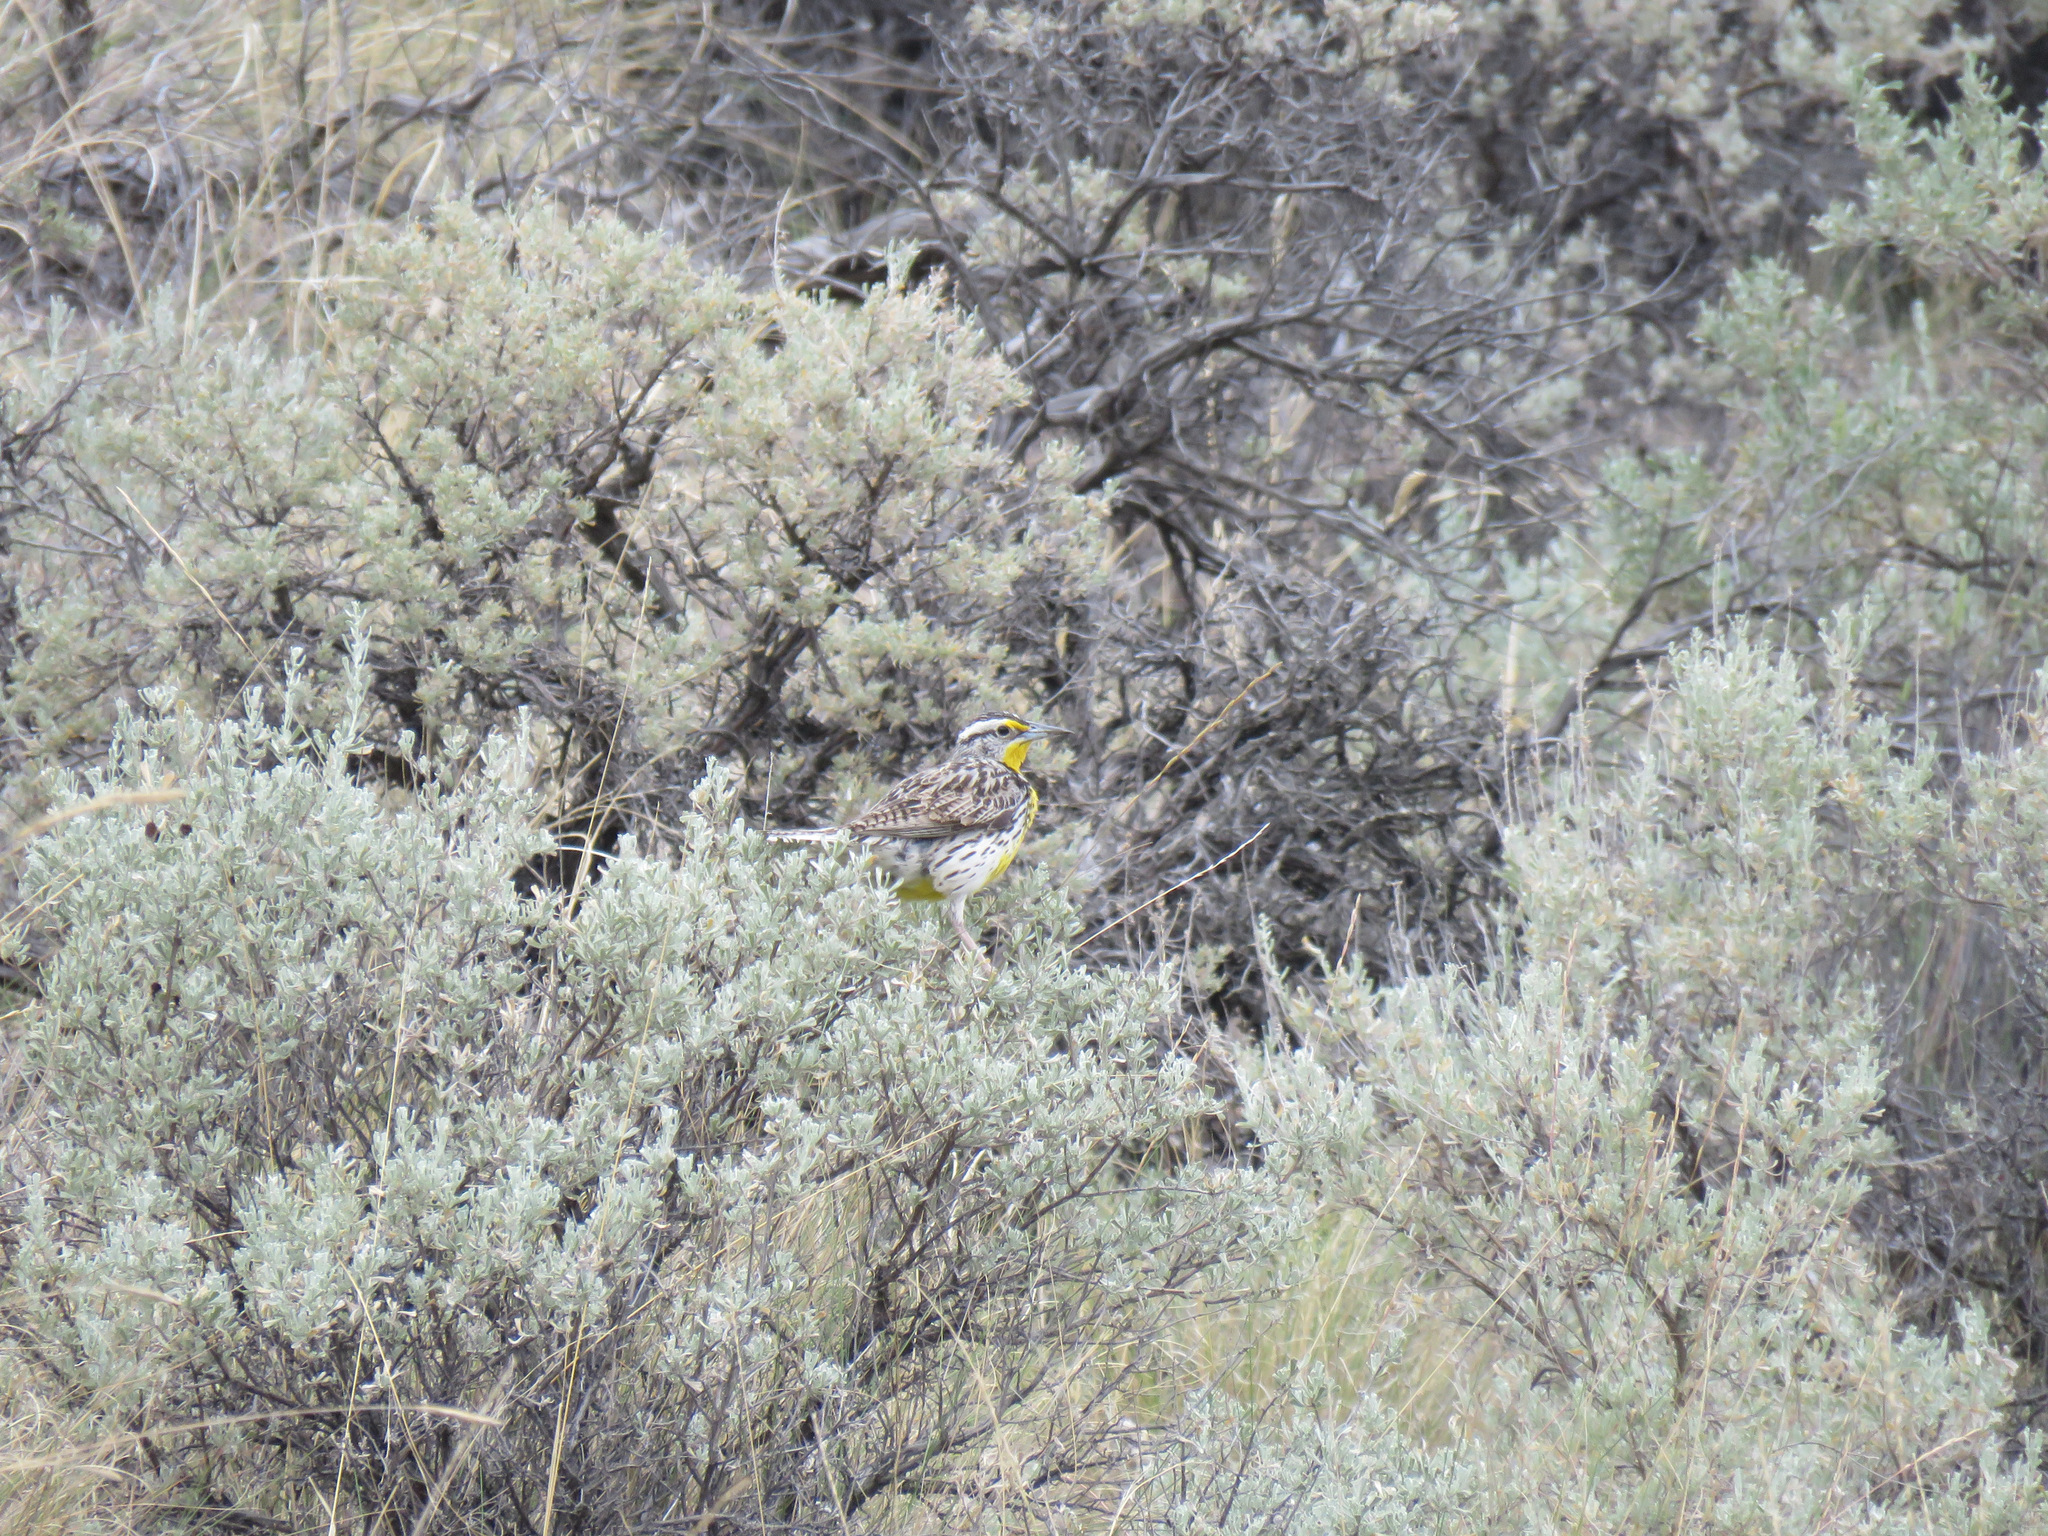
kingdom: Animalia
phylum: Chordata
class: Aves
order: Passeriformes
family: Icteridae
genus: Sturnella
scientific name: Sturnella neglecta
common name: Western meadowlark
